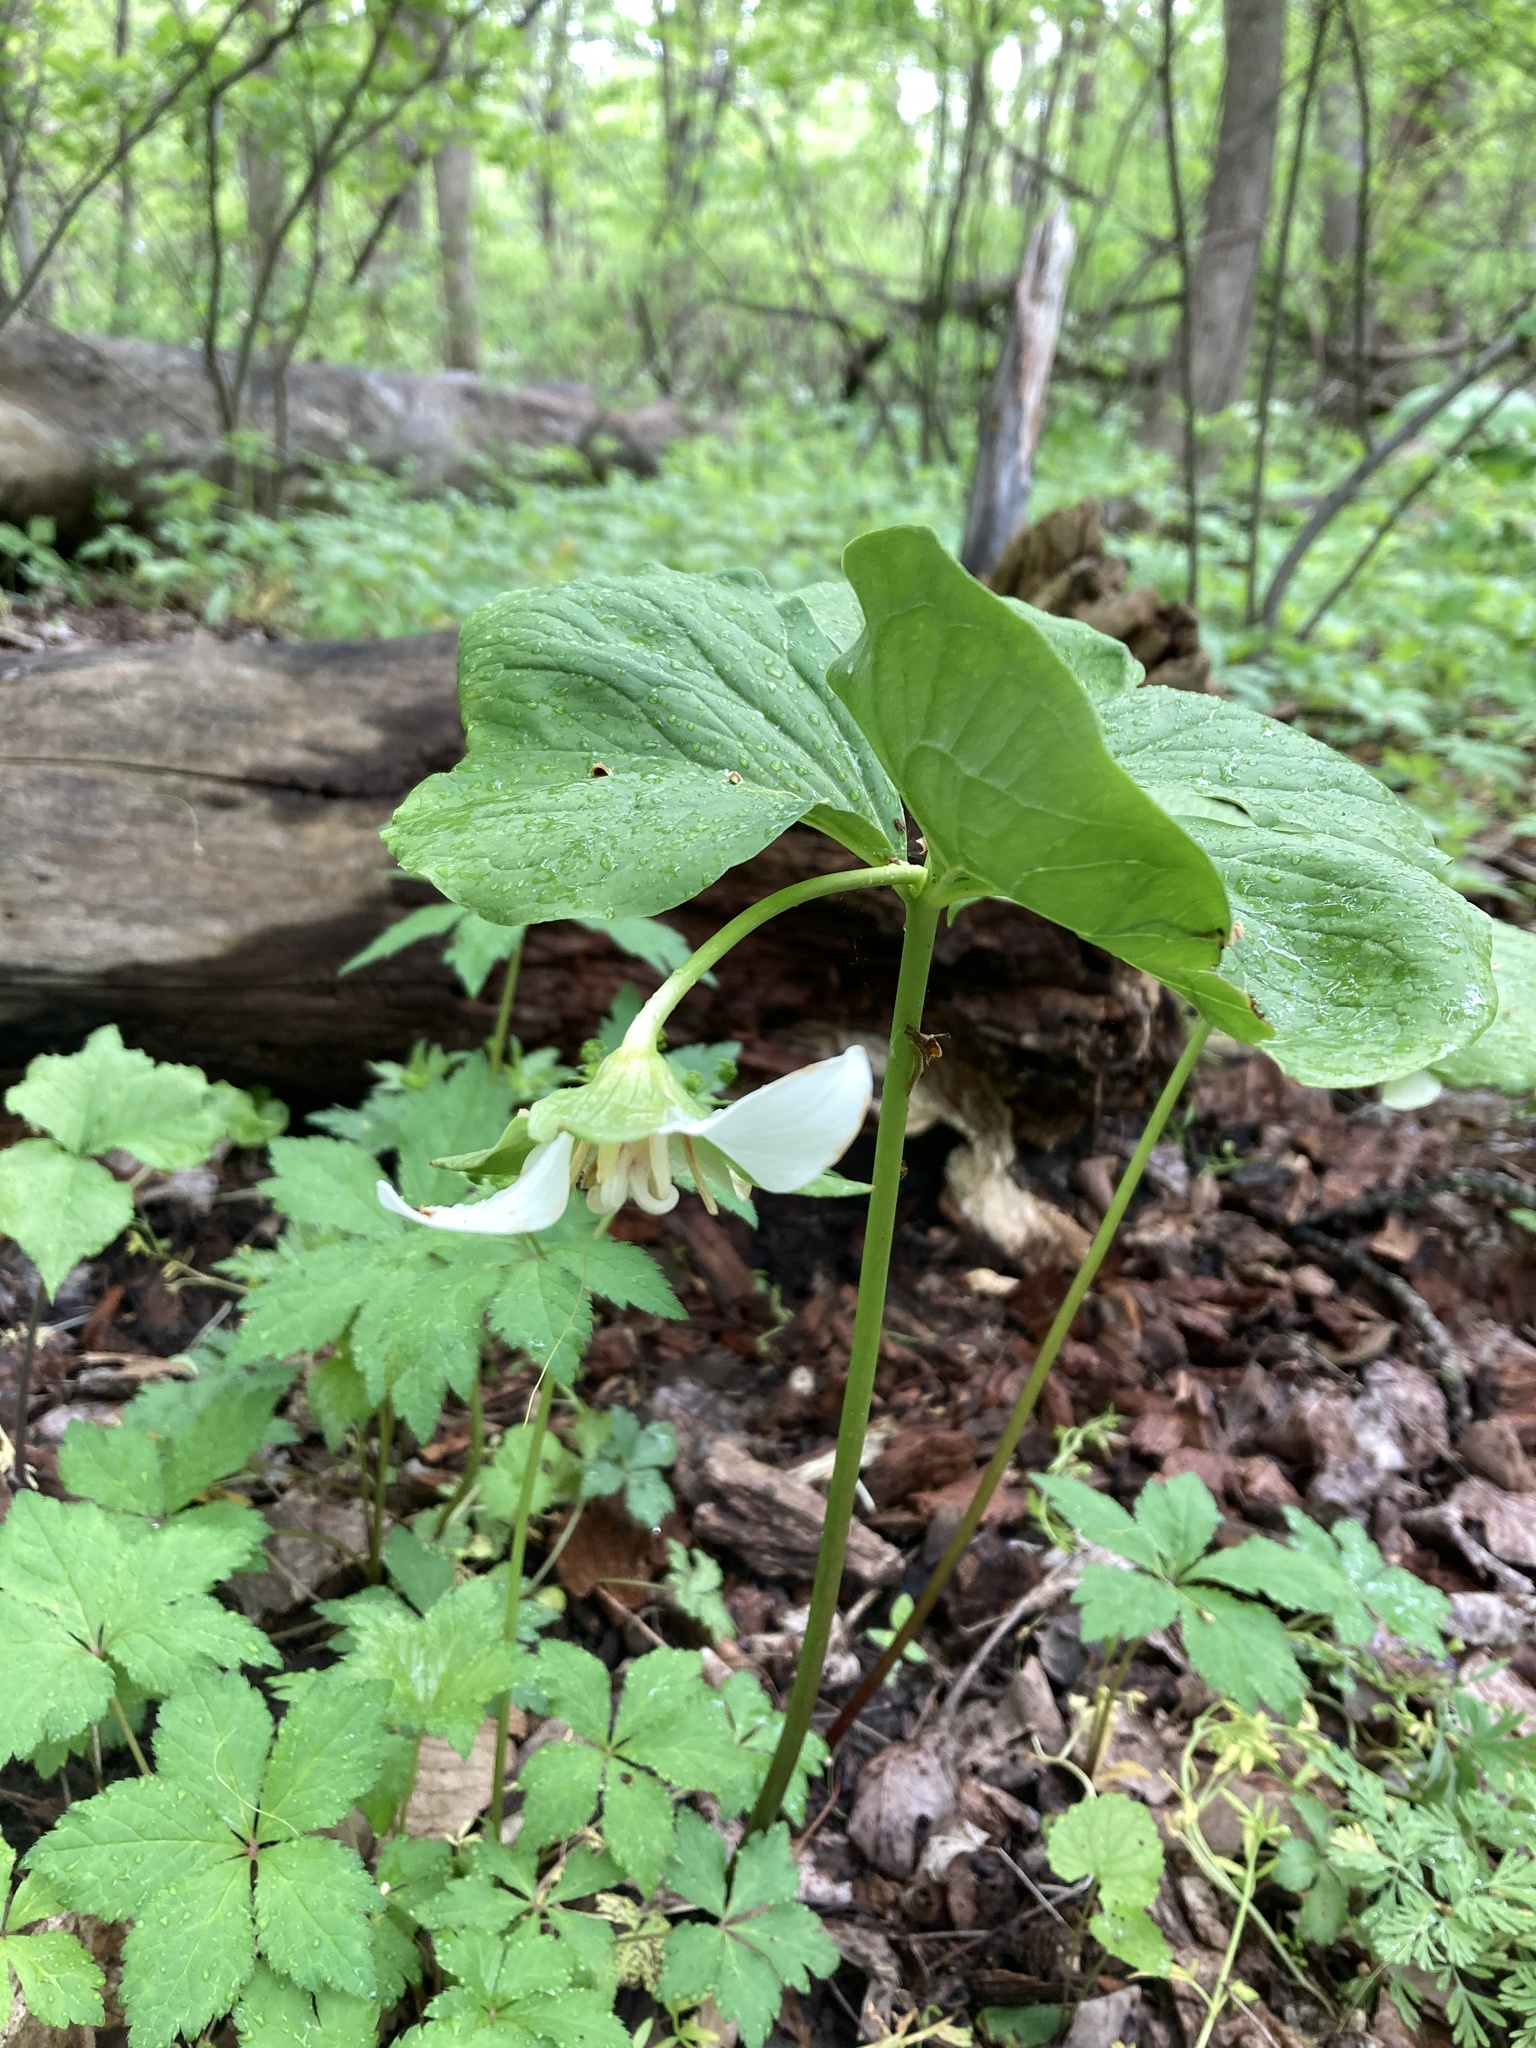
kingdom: Plantae
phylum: Tracheophyta
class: Liliopsida
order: Liliales
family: Melanthiaceae
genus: Trillium
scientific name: Trillium flexipes
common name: Drooping trillium
